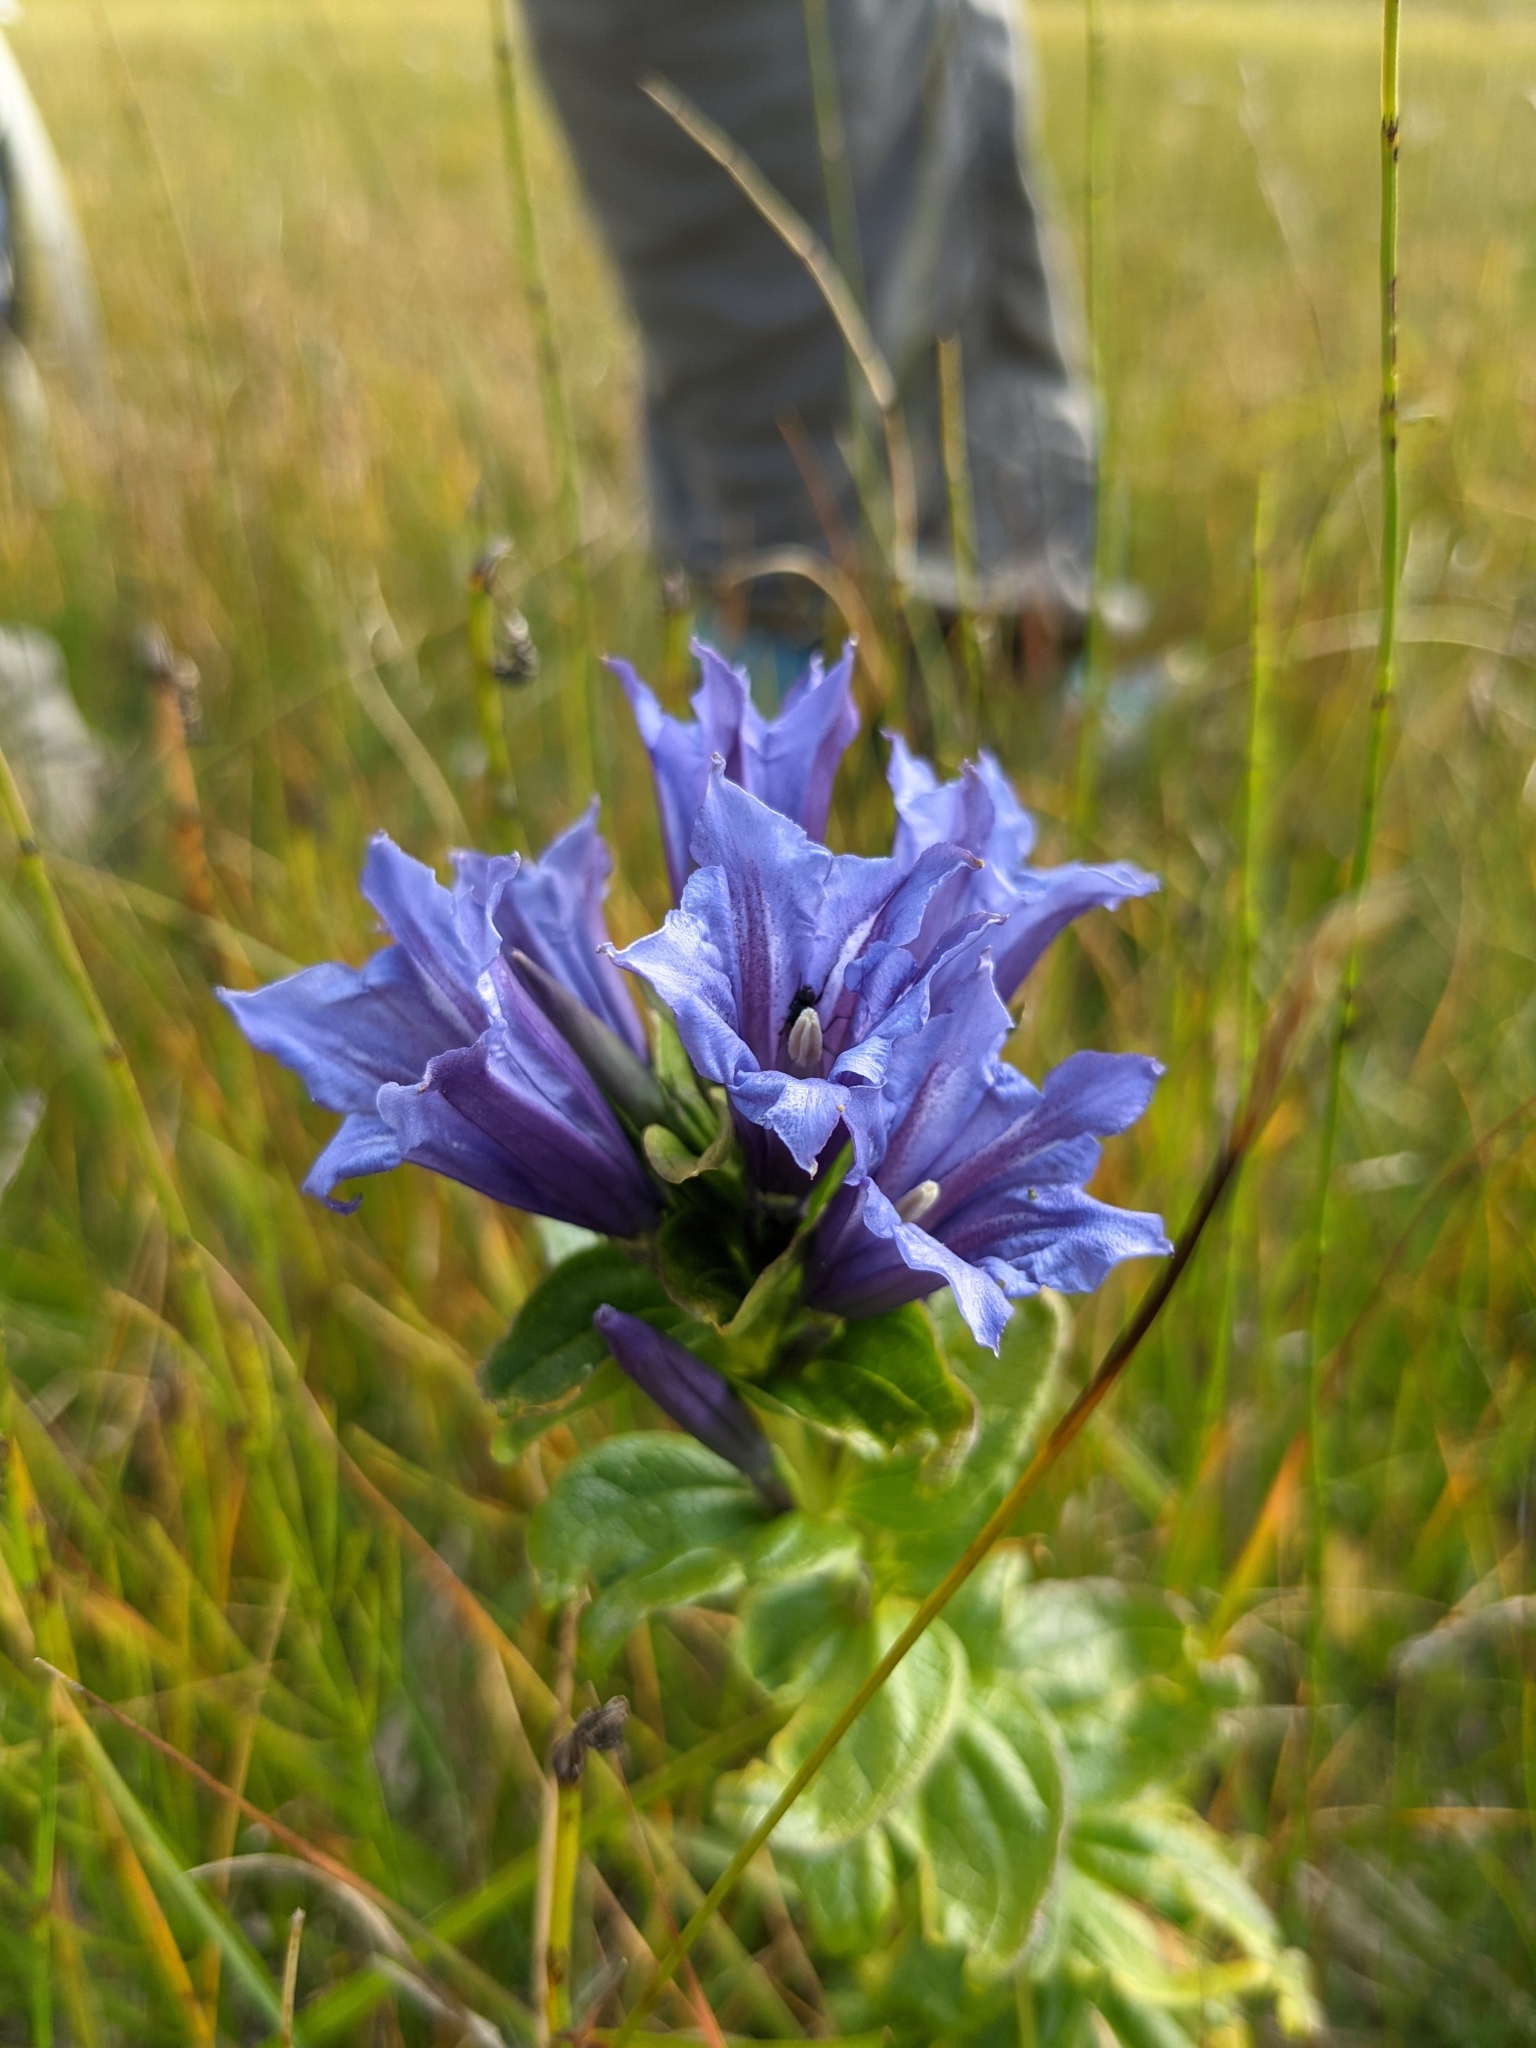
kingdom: Plantae
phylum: Tracheophyta
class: Magnoliopsida
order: Gentianales
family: Gentianaceae
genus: Gentiana
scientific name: Gentiana asclepiadea
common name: Willow gentian
